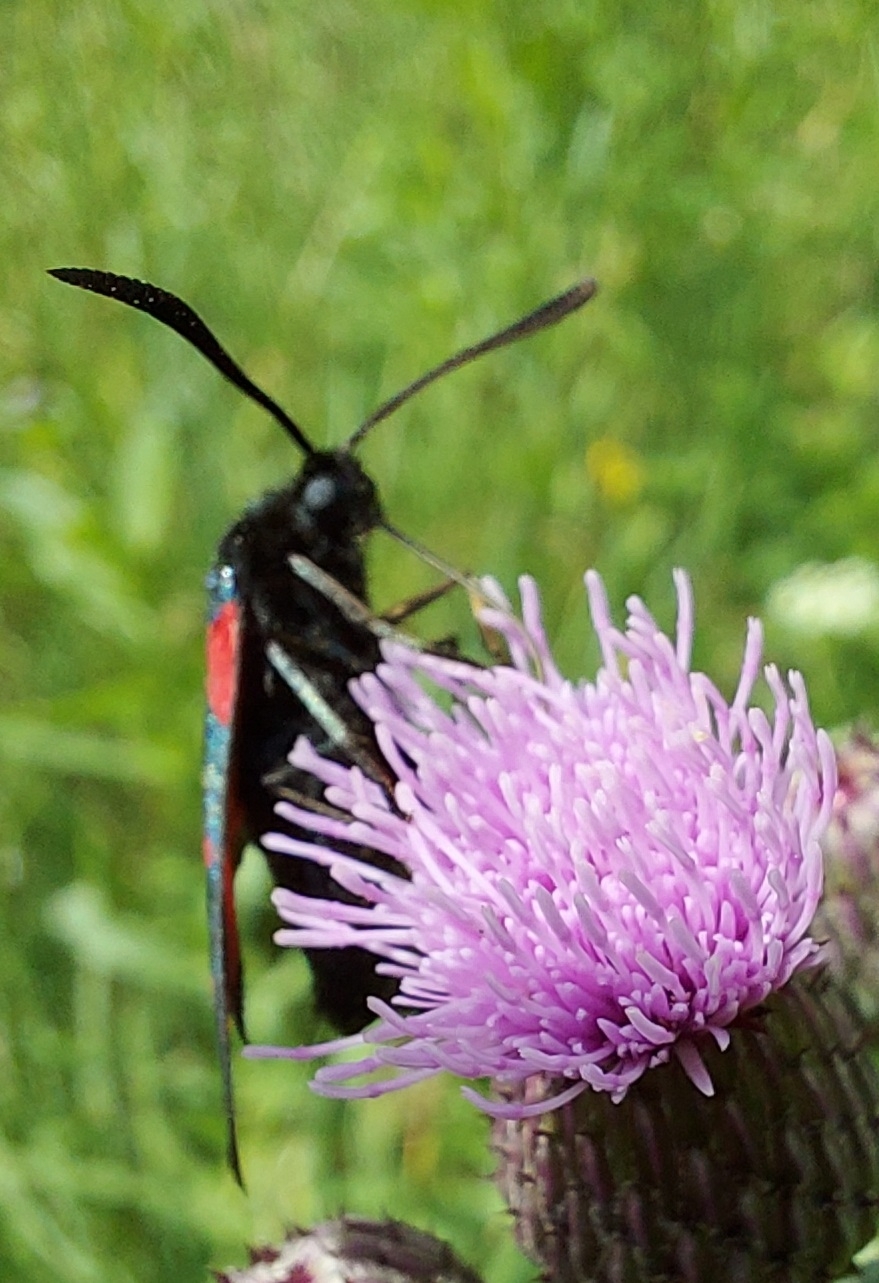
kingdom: Animalia
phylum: Arthropoda
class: Insecta
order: Lepidoptera
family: Zygaenidae
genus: Zygaena
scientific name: Zygaena lonicerae
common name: Narrow-bordered five-spot burnet
